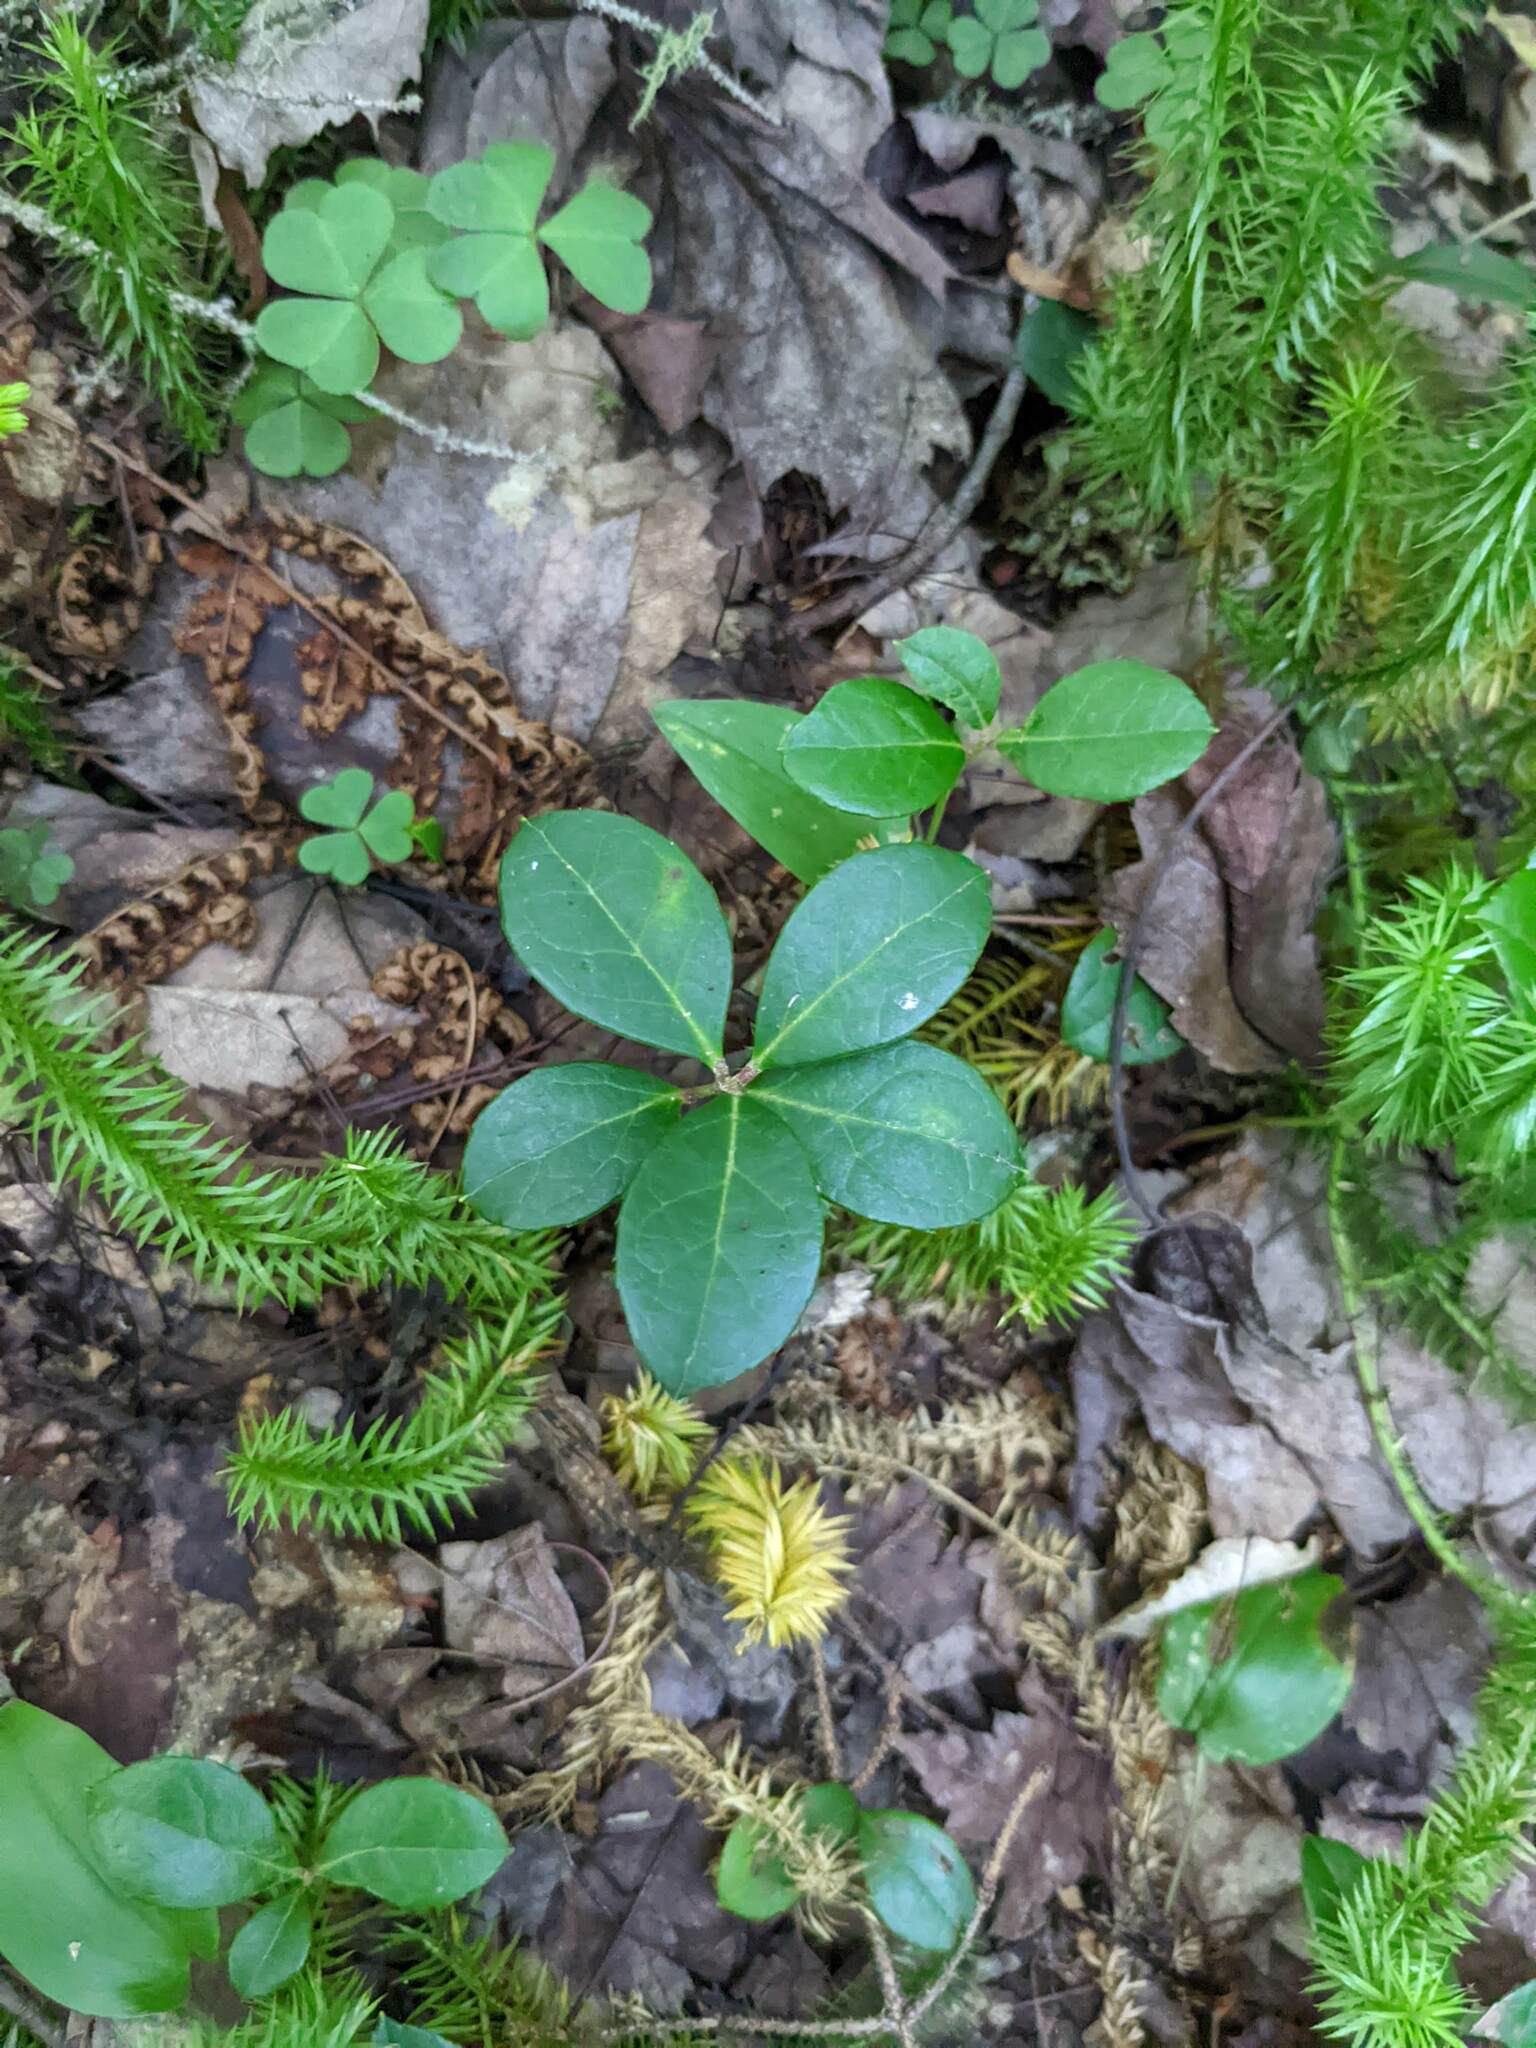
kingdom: Plantae
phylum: Tracheophyta
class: Magnoliopsida
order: Ericales
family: Ericaceae
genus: Gaultheria
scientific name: Gaultheria procumbens
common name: Checkerberry
